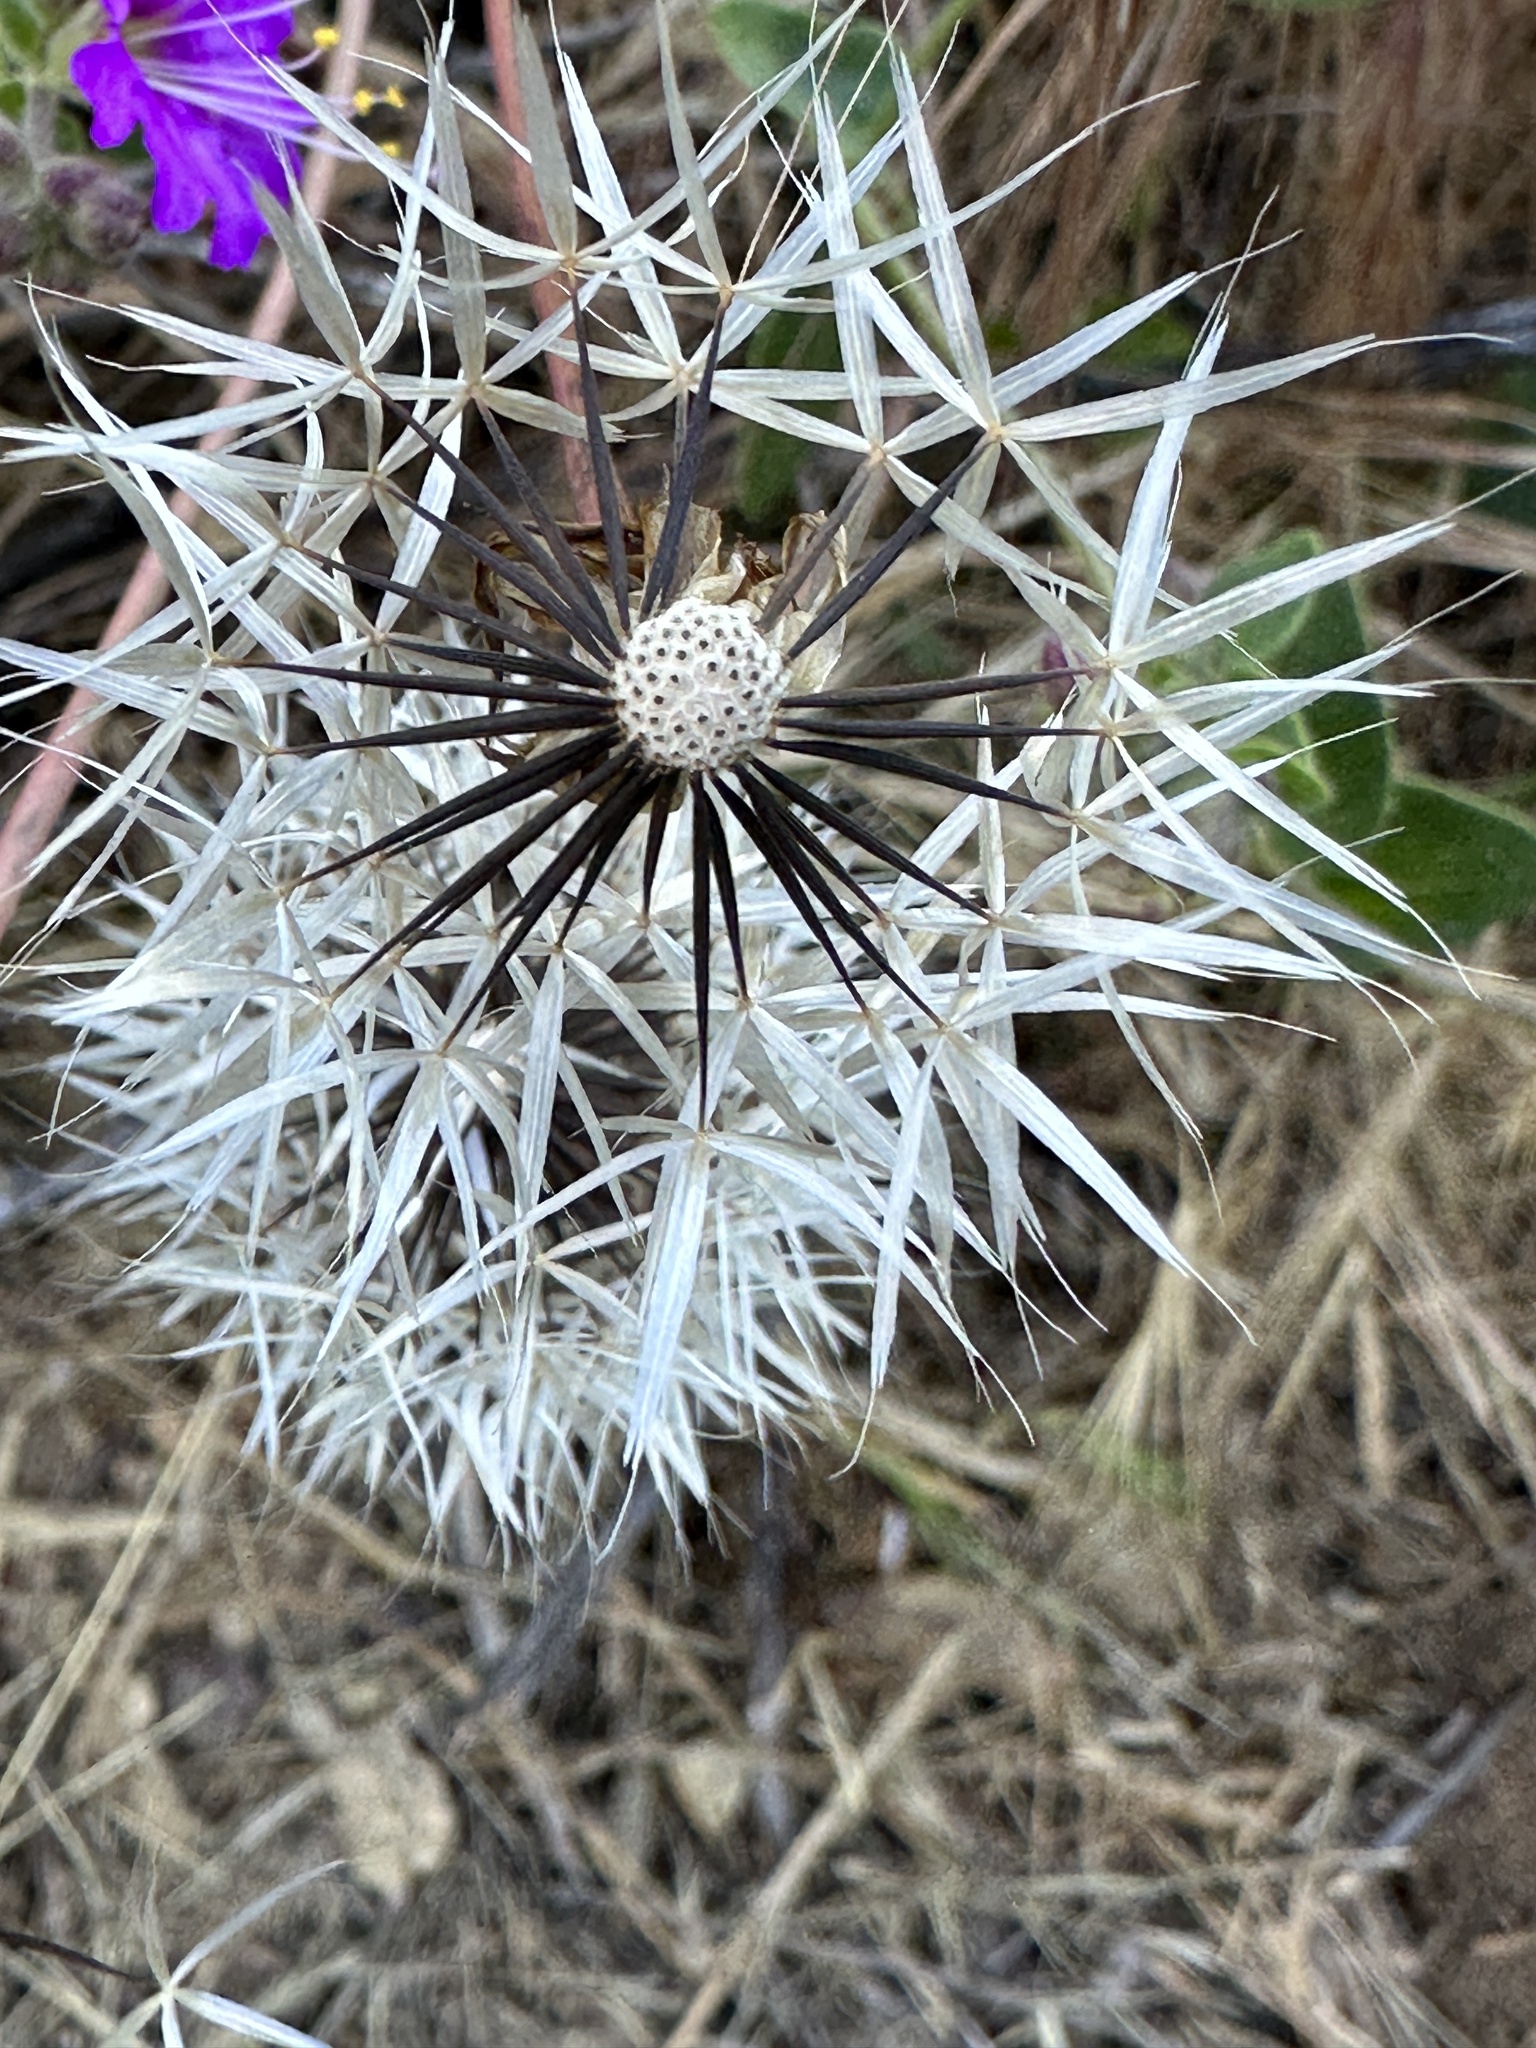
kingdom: Plantae
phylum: Tracheophyta
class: Magnoliopsida
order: Asterales
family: Asteraceae
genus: Microseris
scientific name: Microseris lindleyi
